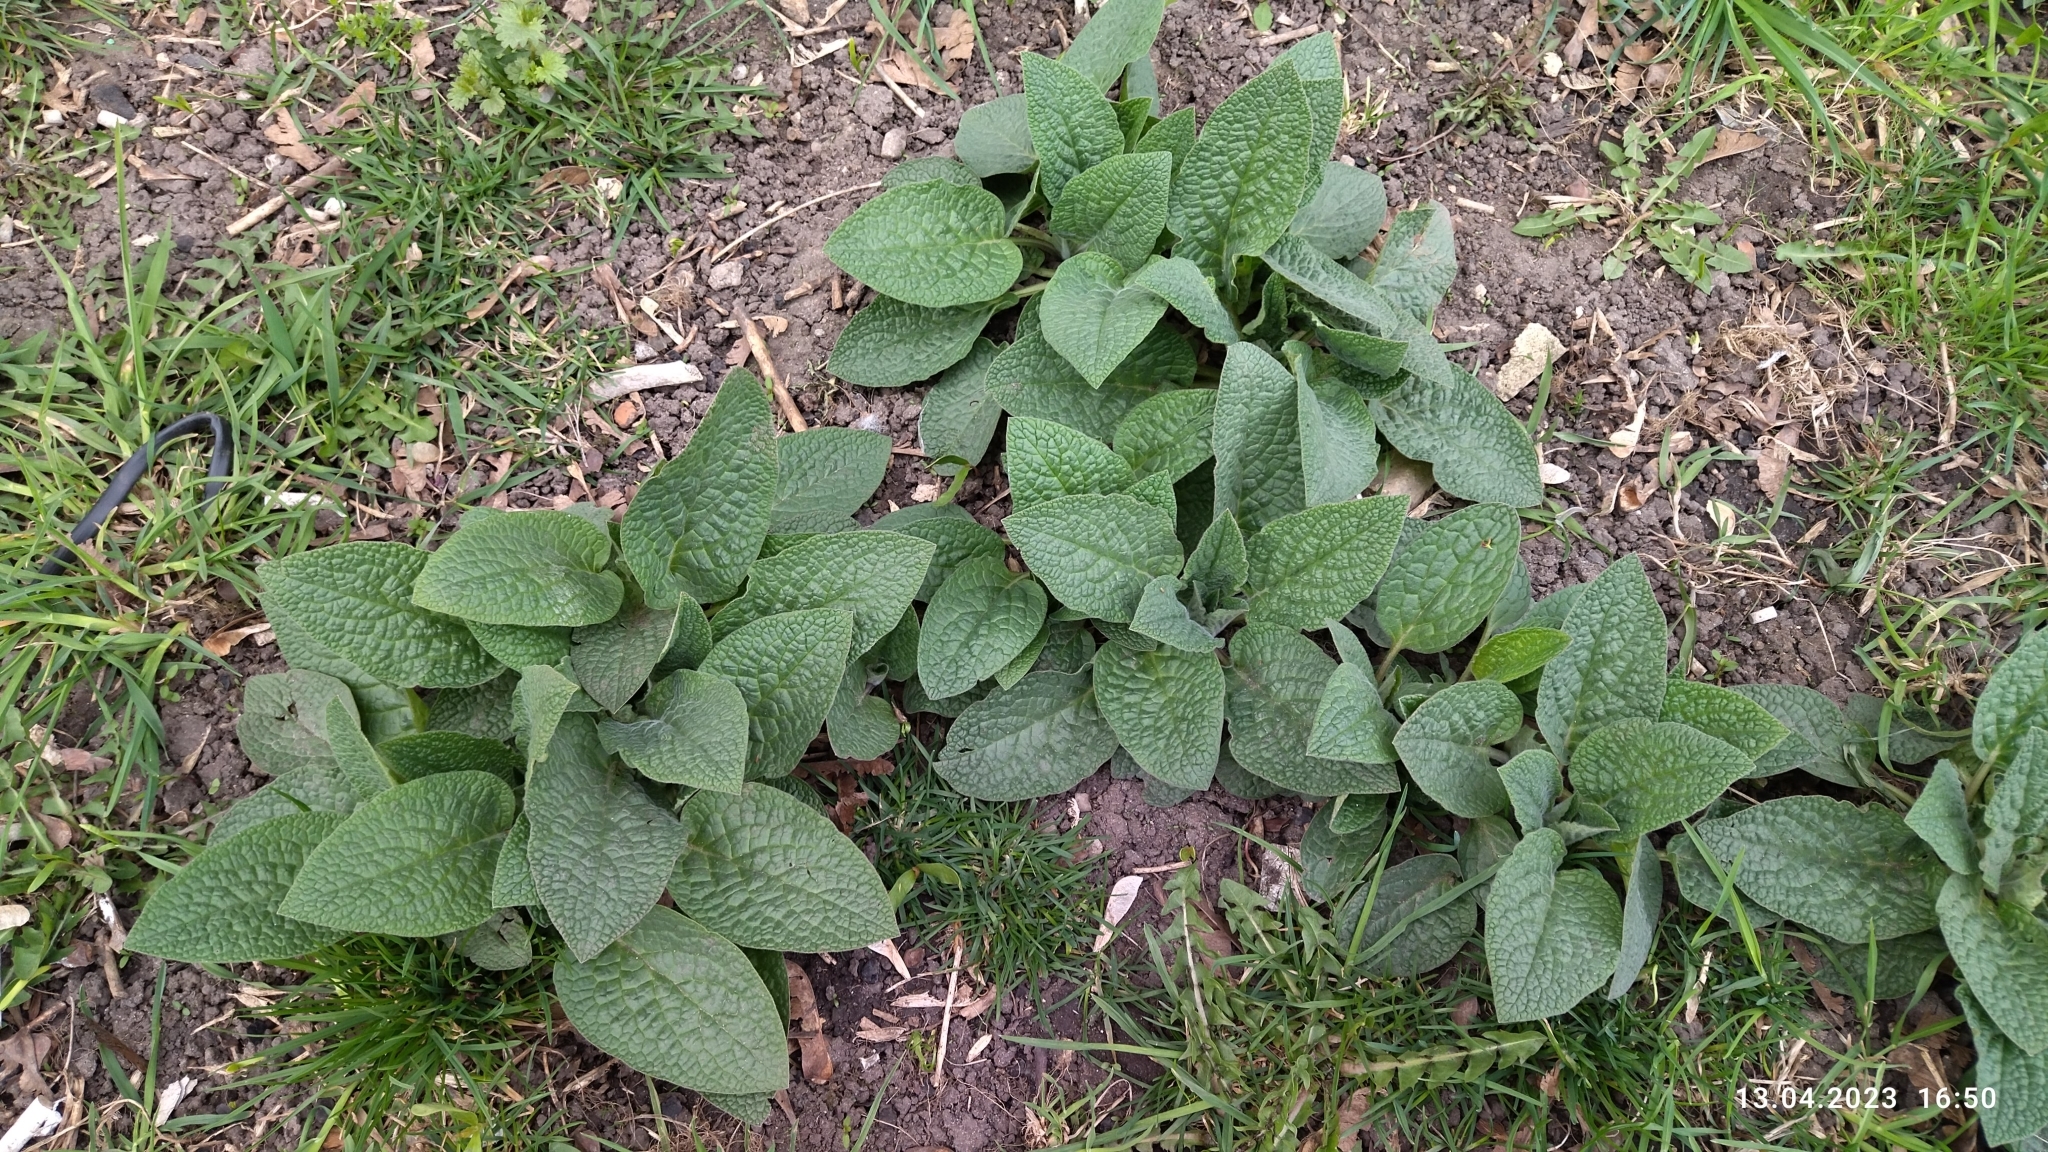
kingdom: Plantae
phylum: Tracheophyta
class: Magnoliopsida
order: Boraginales
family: Boraginaceae
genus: Symphytum
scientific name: Symphytum caucasicum
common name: Caucasian comfrey
